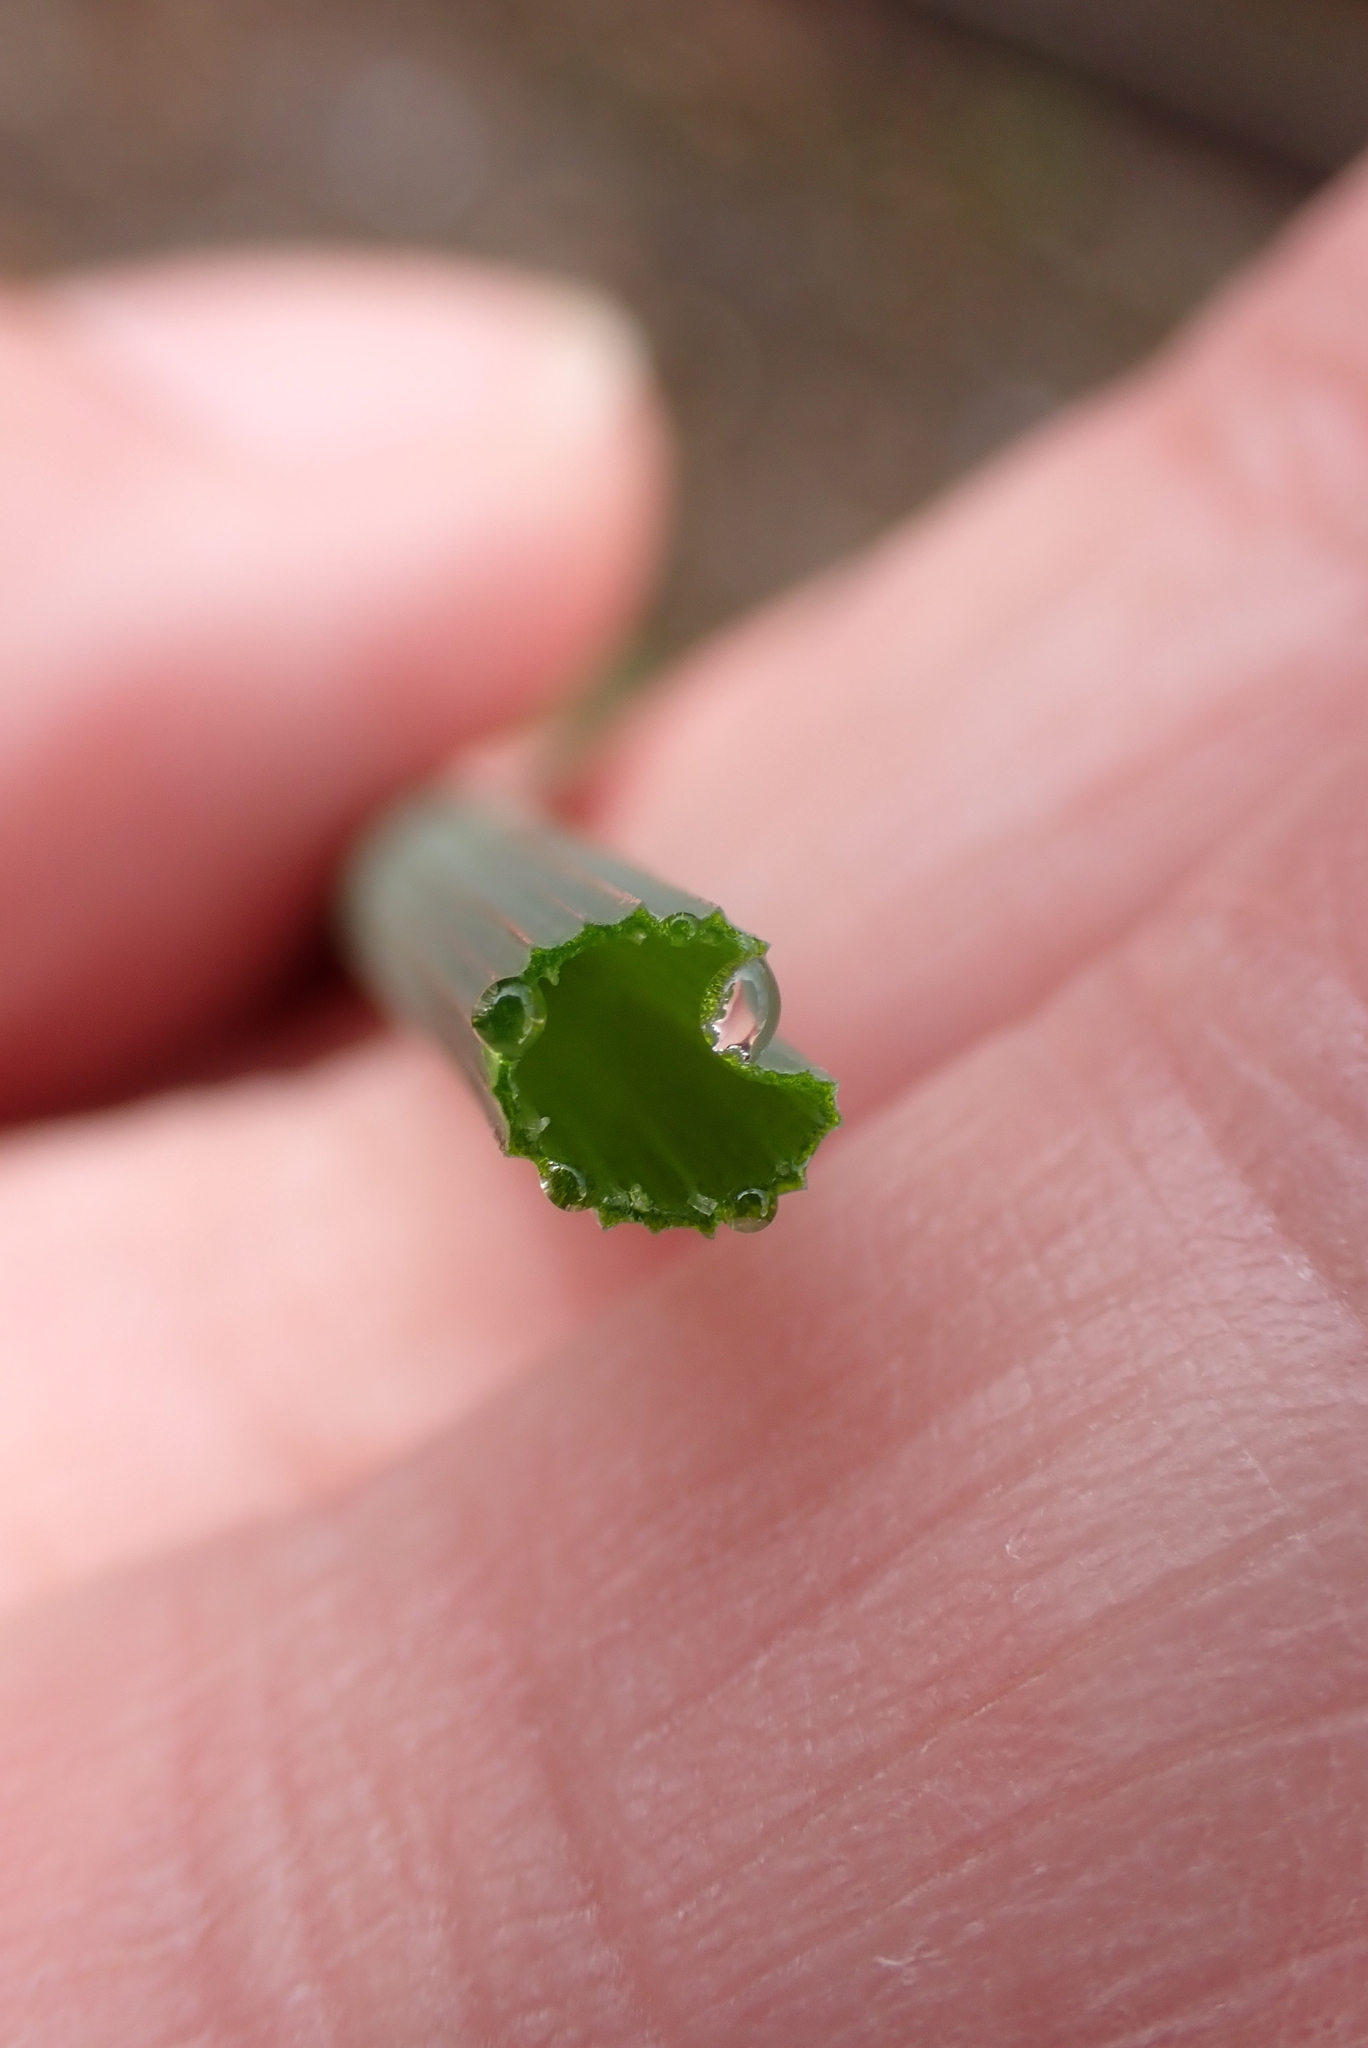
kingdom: Plantae
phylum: Tracheophyta
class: Liliopsida
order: Asparagales
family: Amaryllidaceae
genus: Allium
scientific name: Allium vineale
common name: Crow garlic
